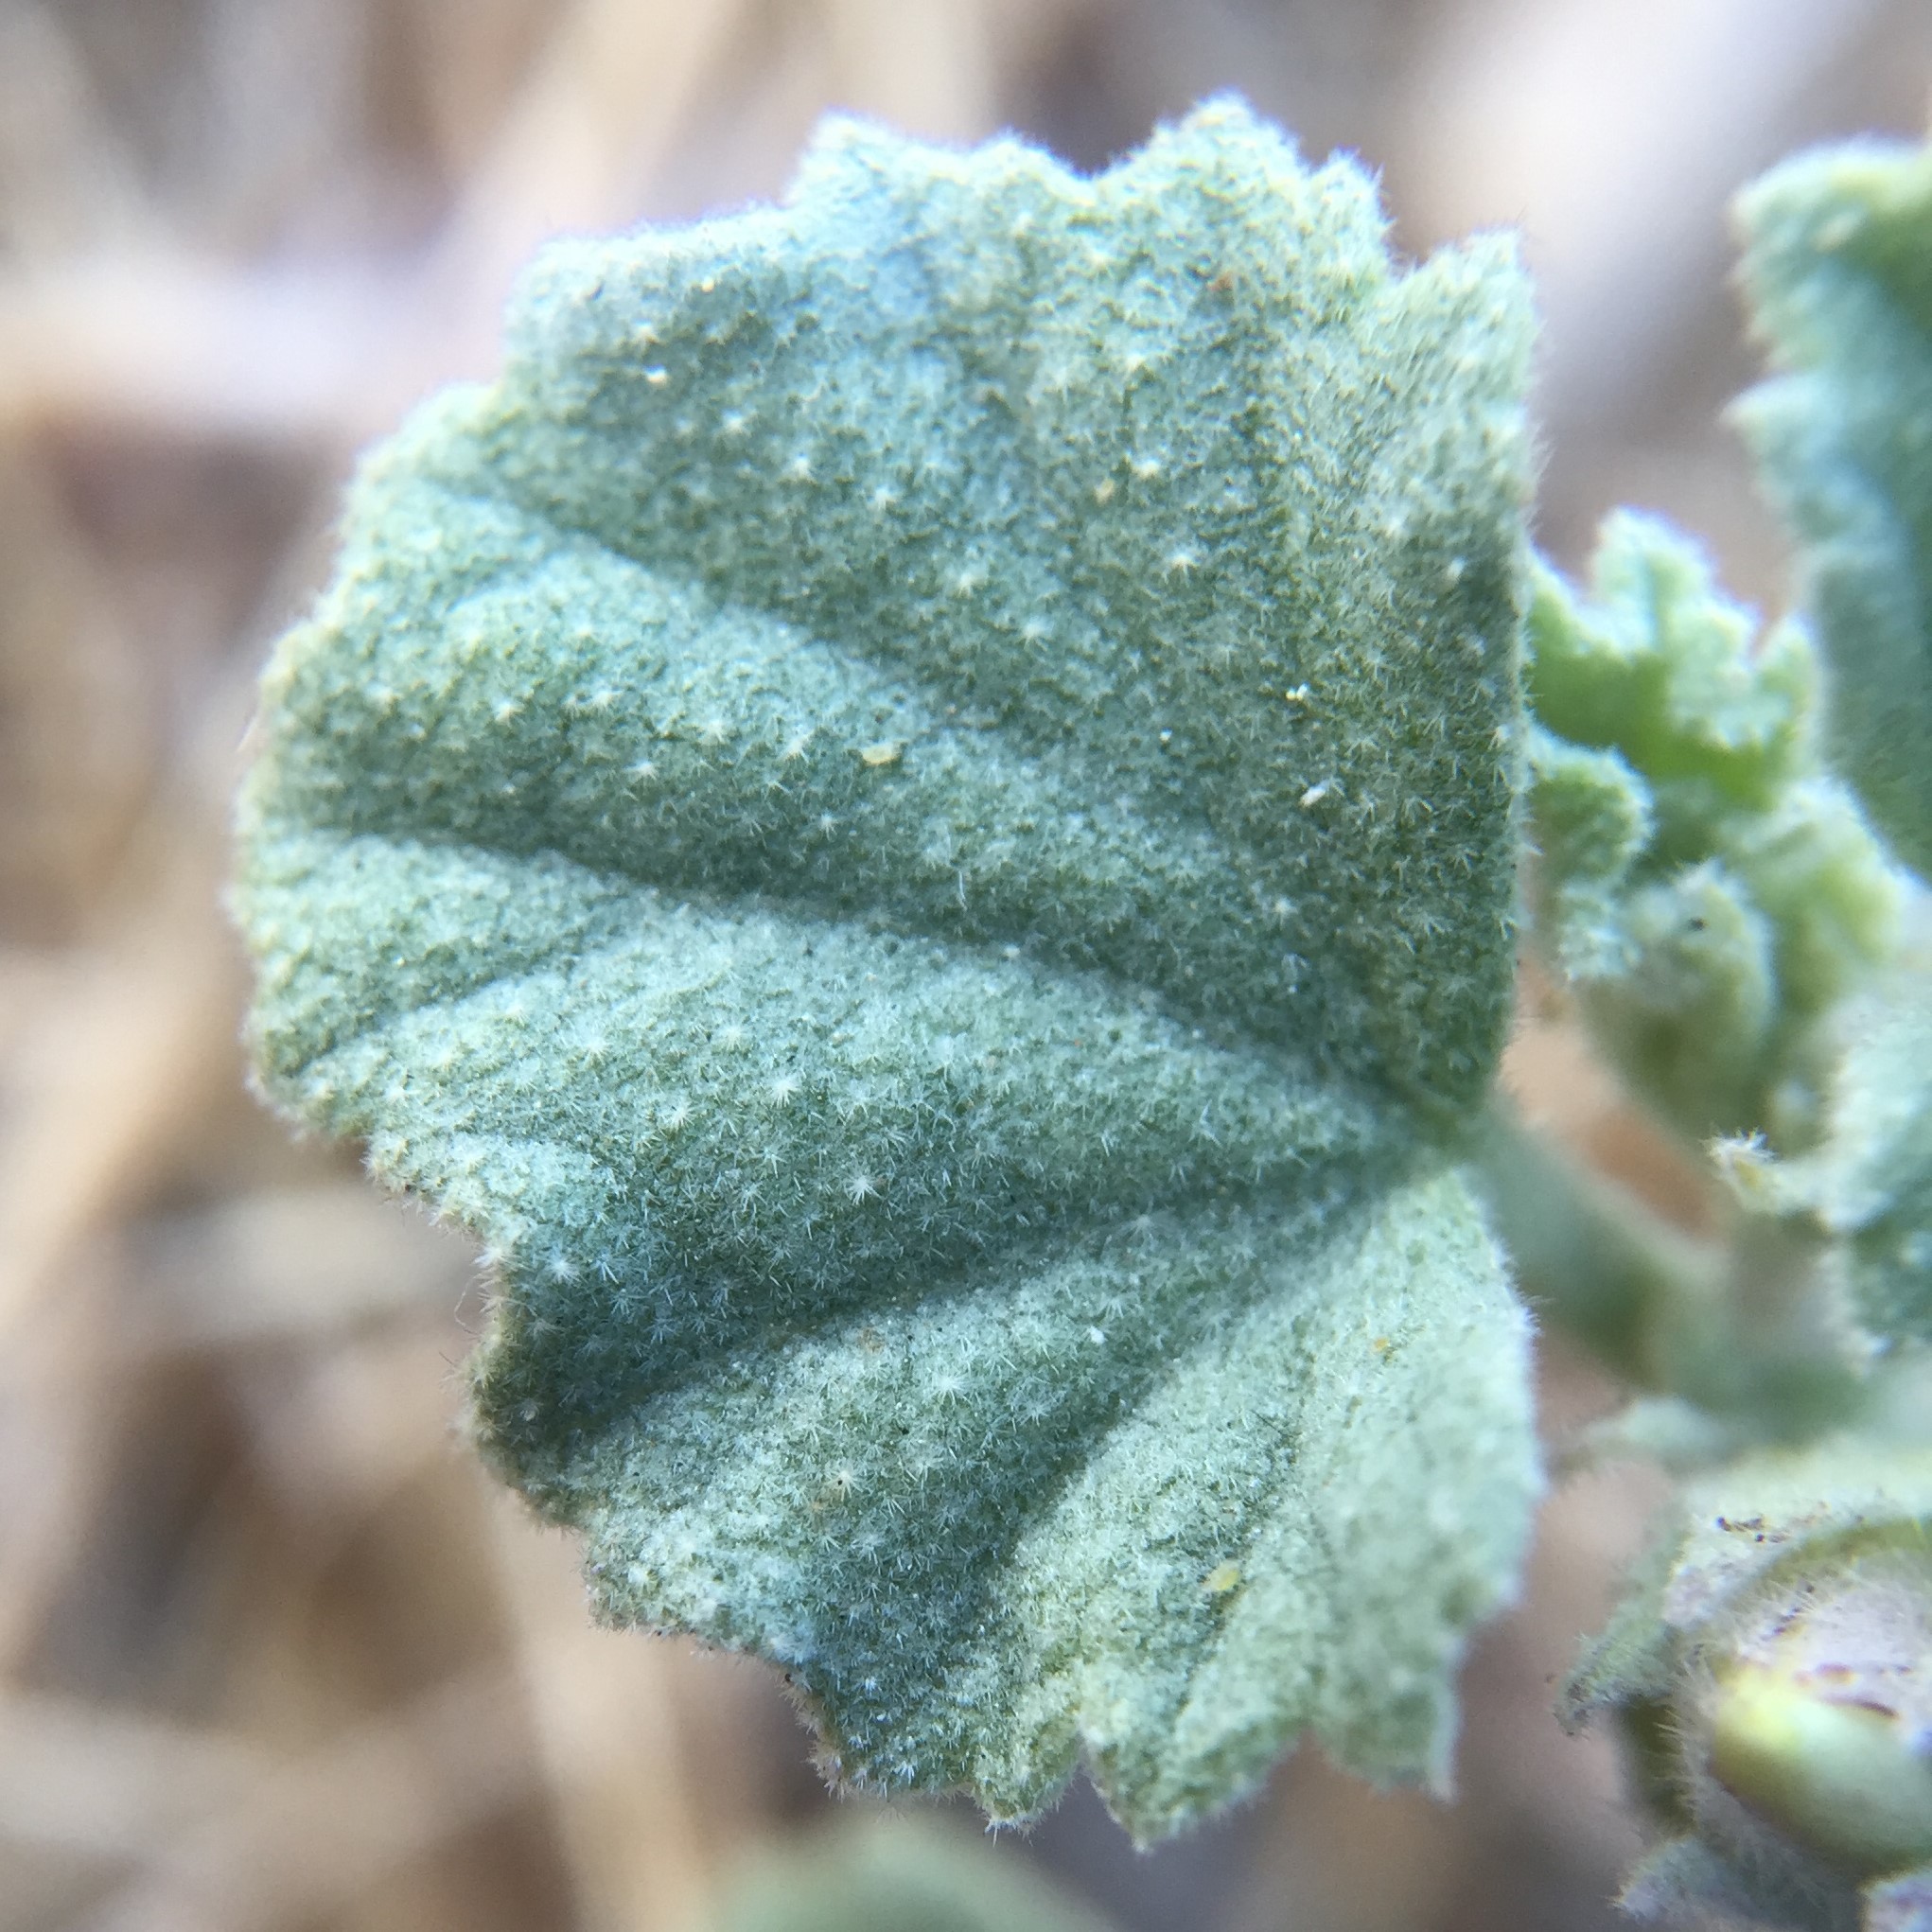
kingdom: Plantae
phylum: Tracheophyta
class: Magnoliopsida
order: Malvales
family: Malvaceae
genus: Malvella
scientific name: Malvella leprosa
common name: Alkali-mallow
